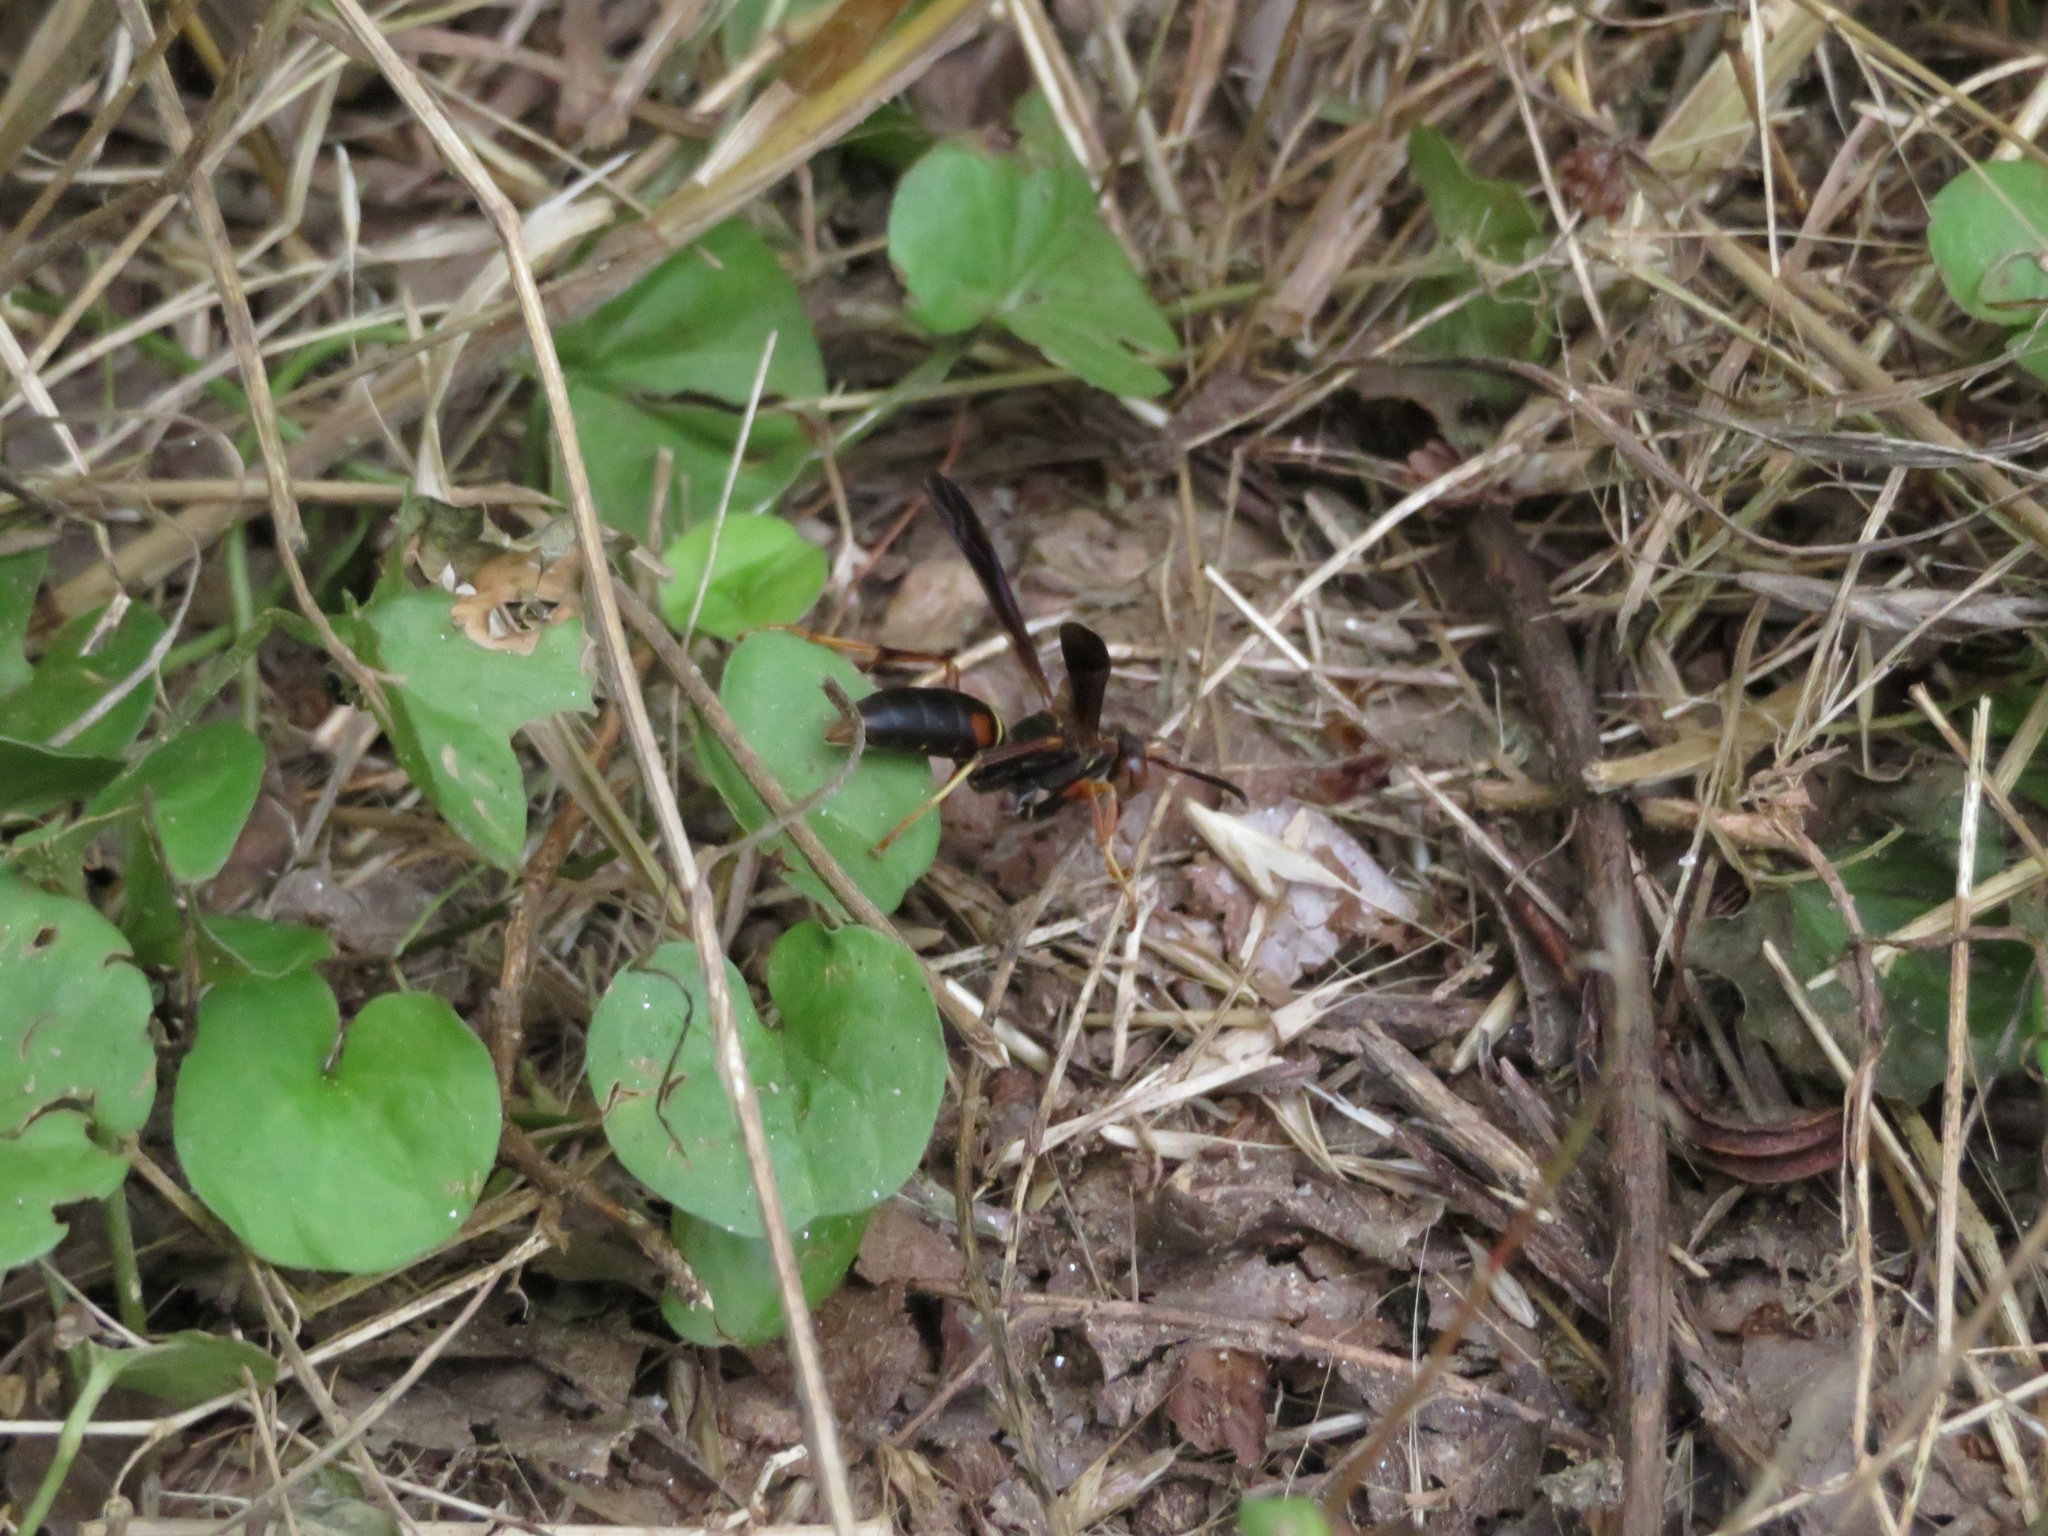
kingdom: Animalia
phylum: Arthropoda
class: Insecta
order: Hymenoptera
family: Eumenidae
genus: Polistes
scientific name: Polistes fuscatus
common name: Dark paper wasp
